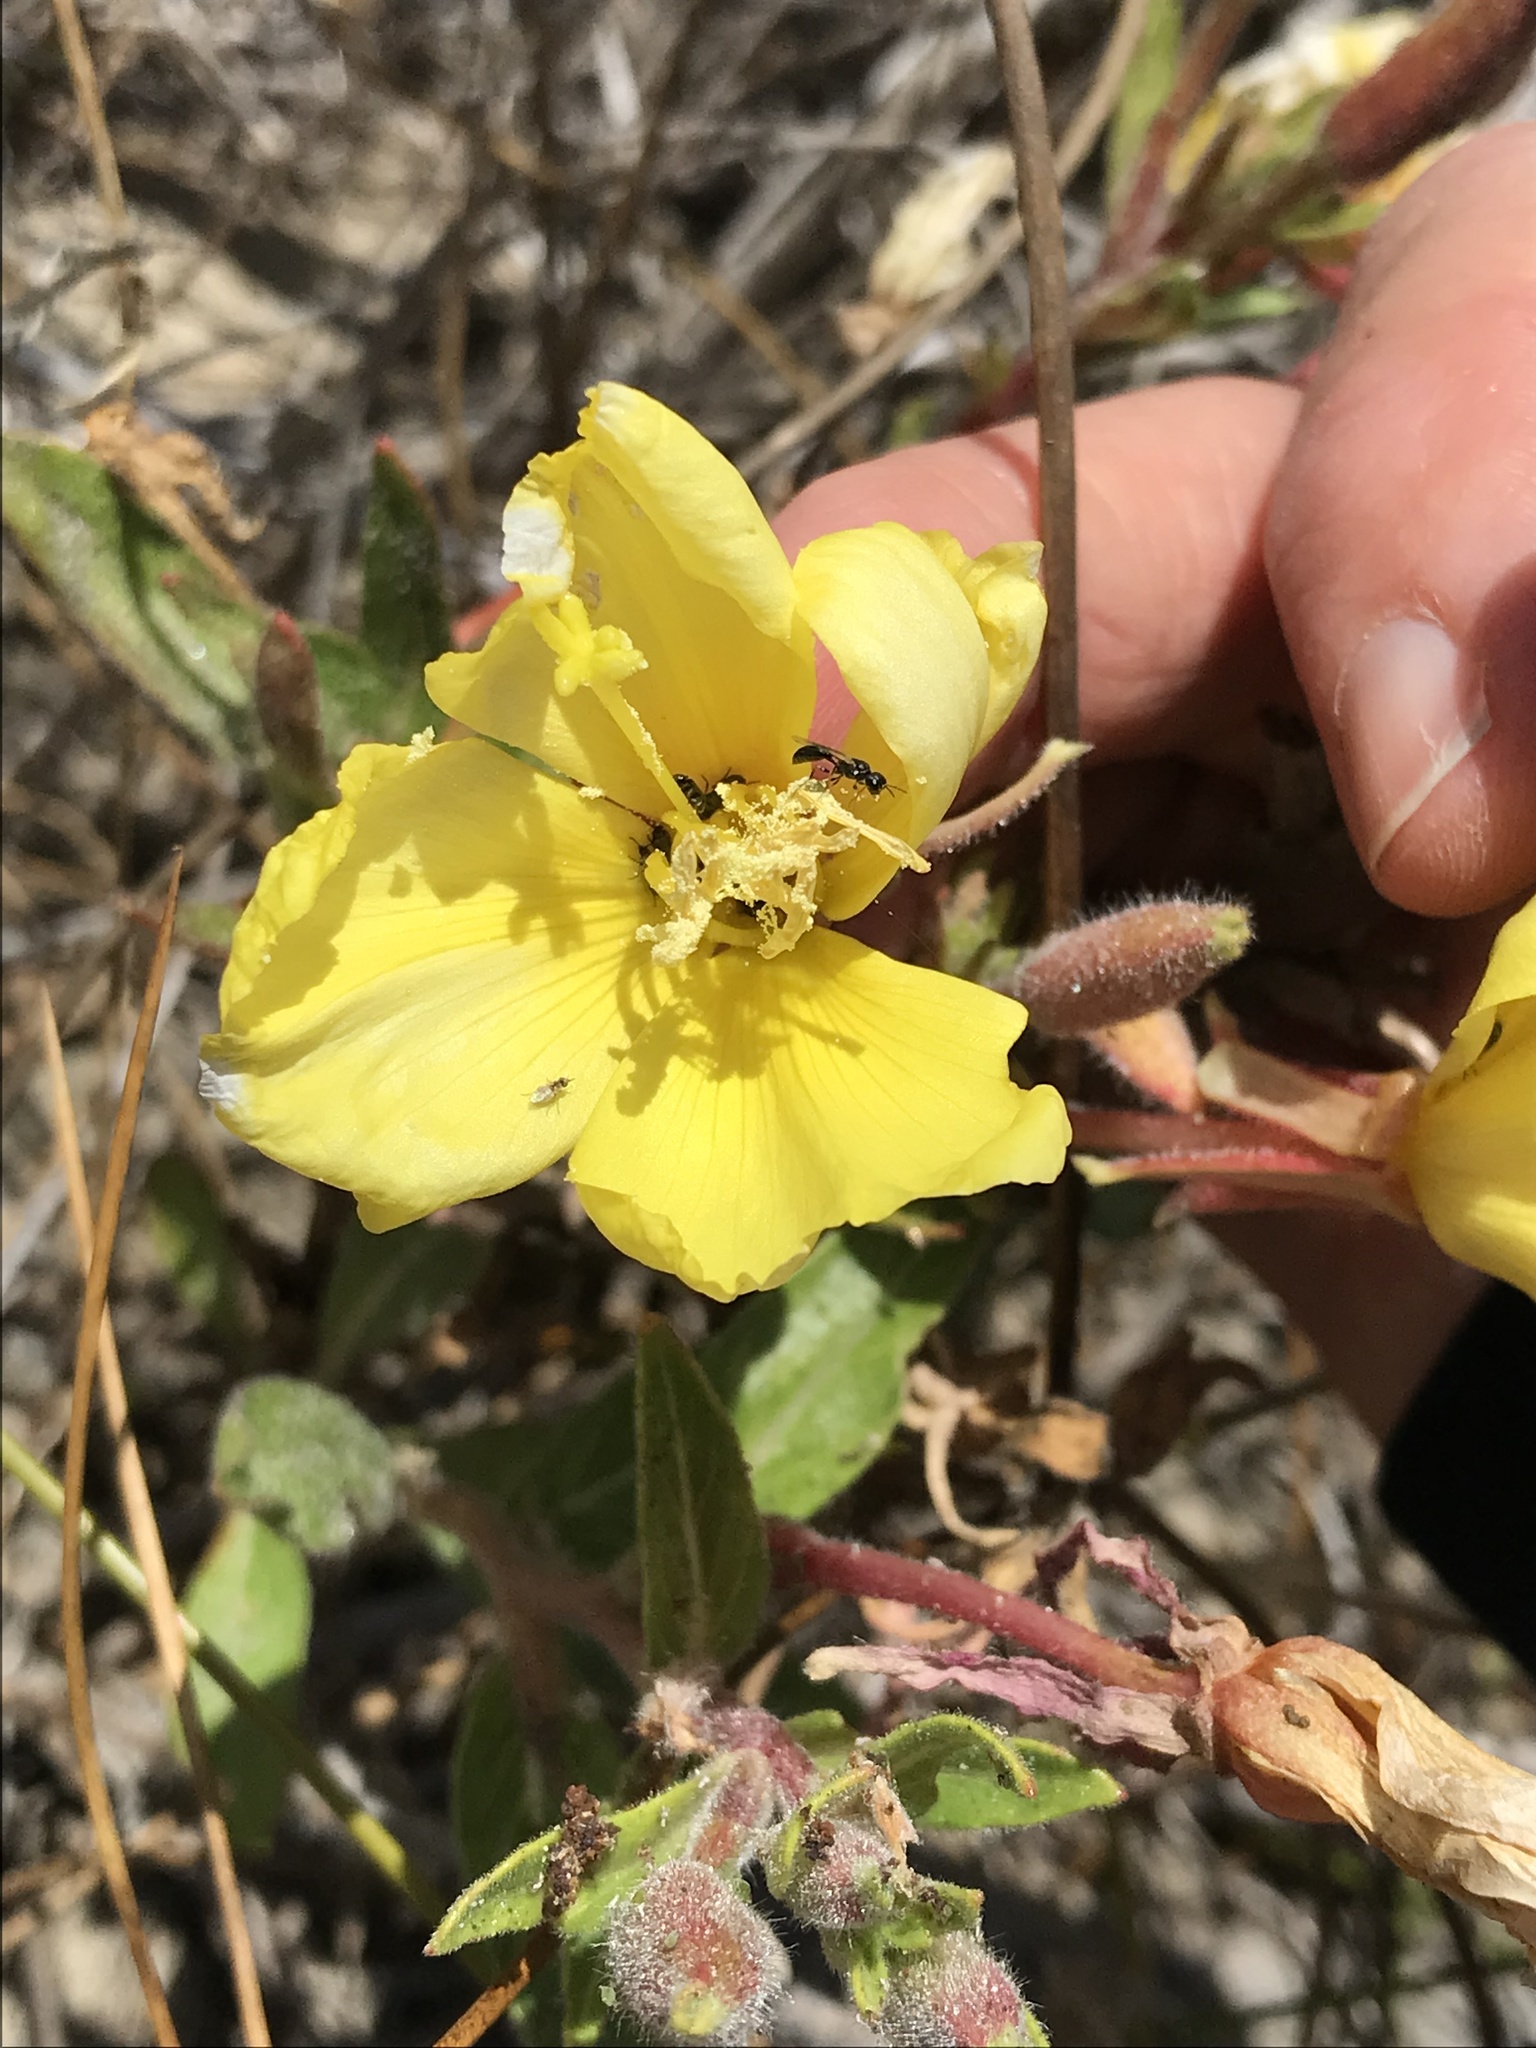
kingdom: Plantae
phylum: Tracheophyta
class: Magnoliopsida
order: Myrtales
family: Onagraceae
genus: Oenothera
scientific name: Oenothera elata
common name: Hooker's evening-primrose
